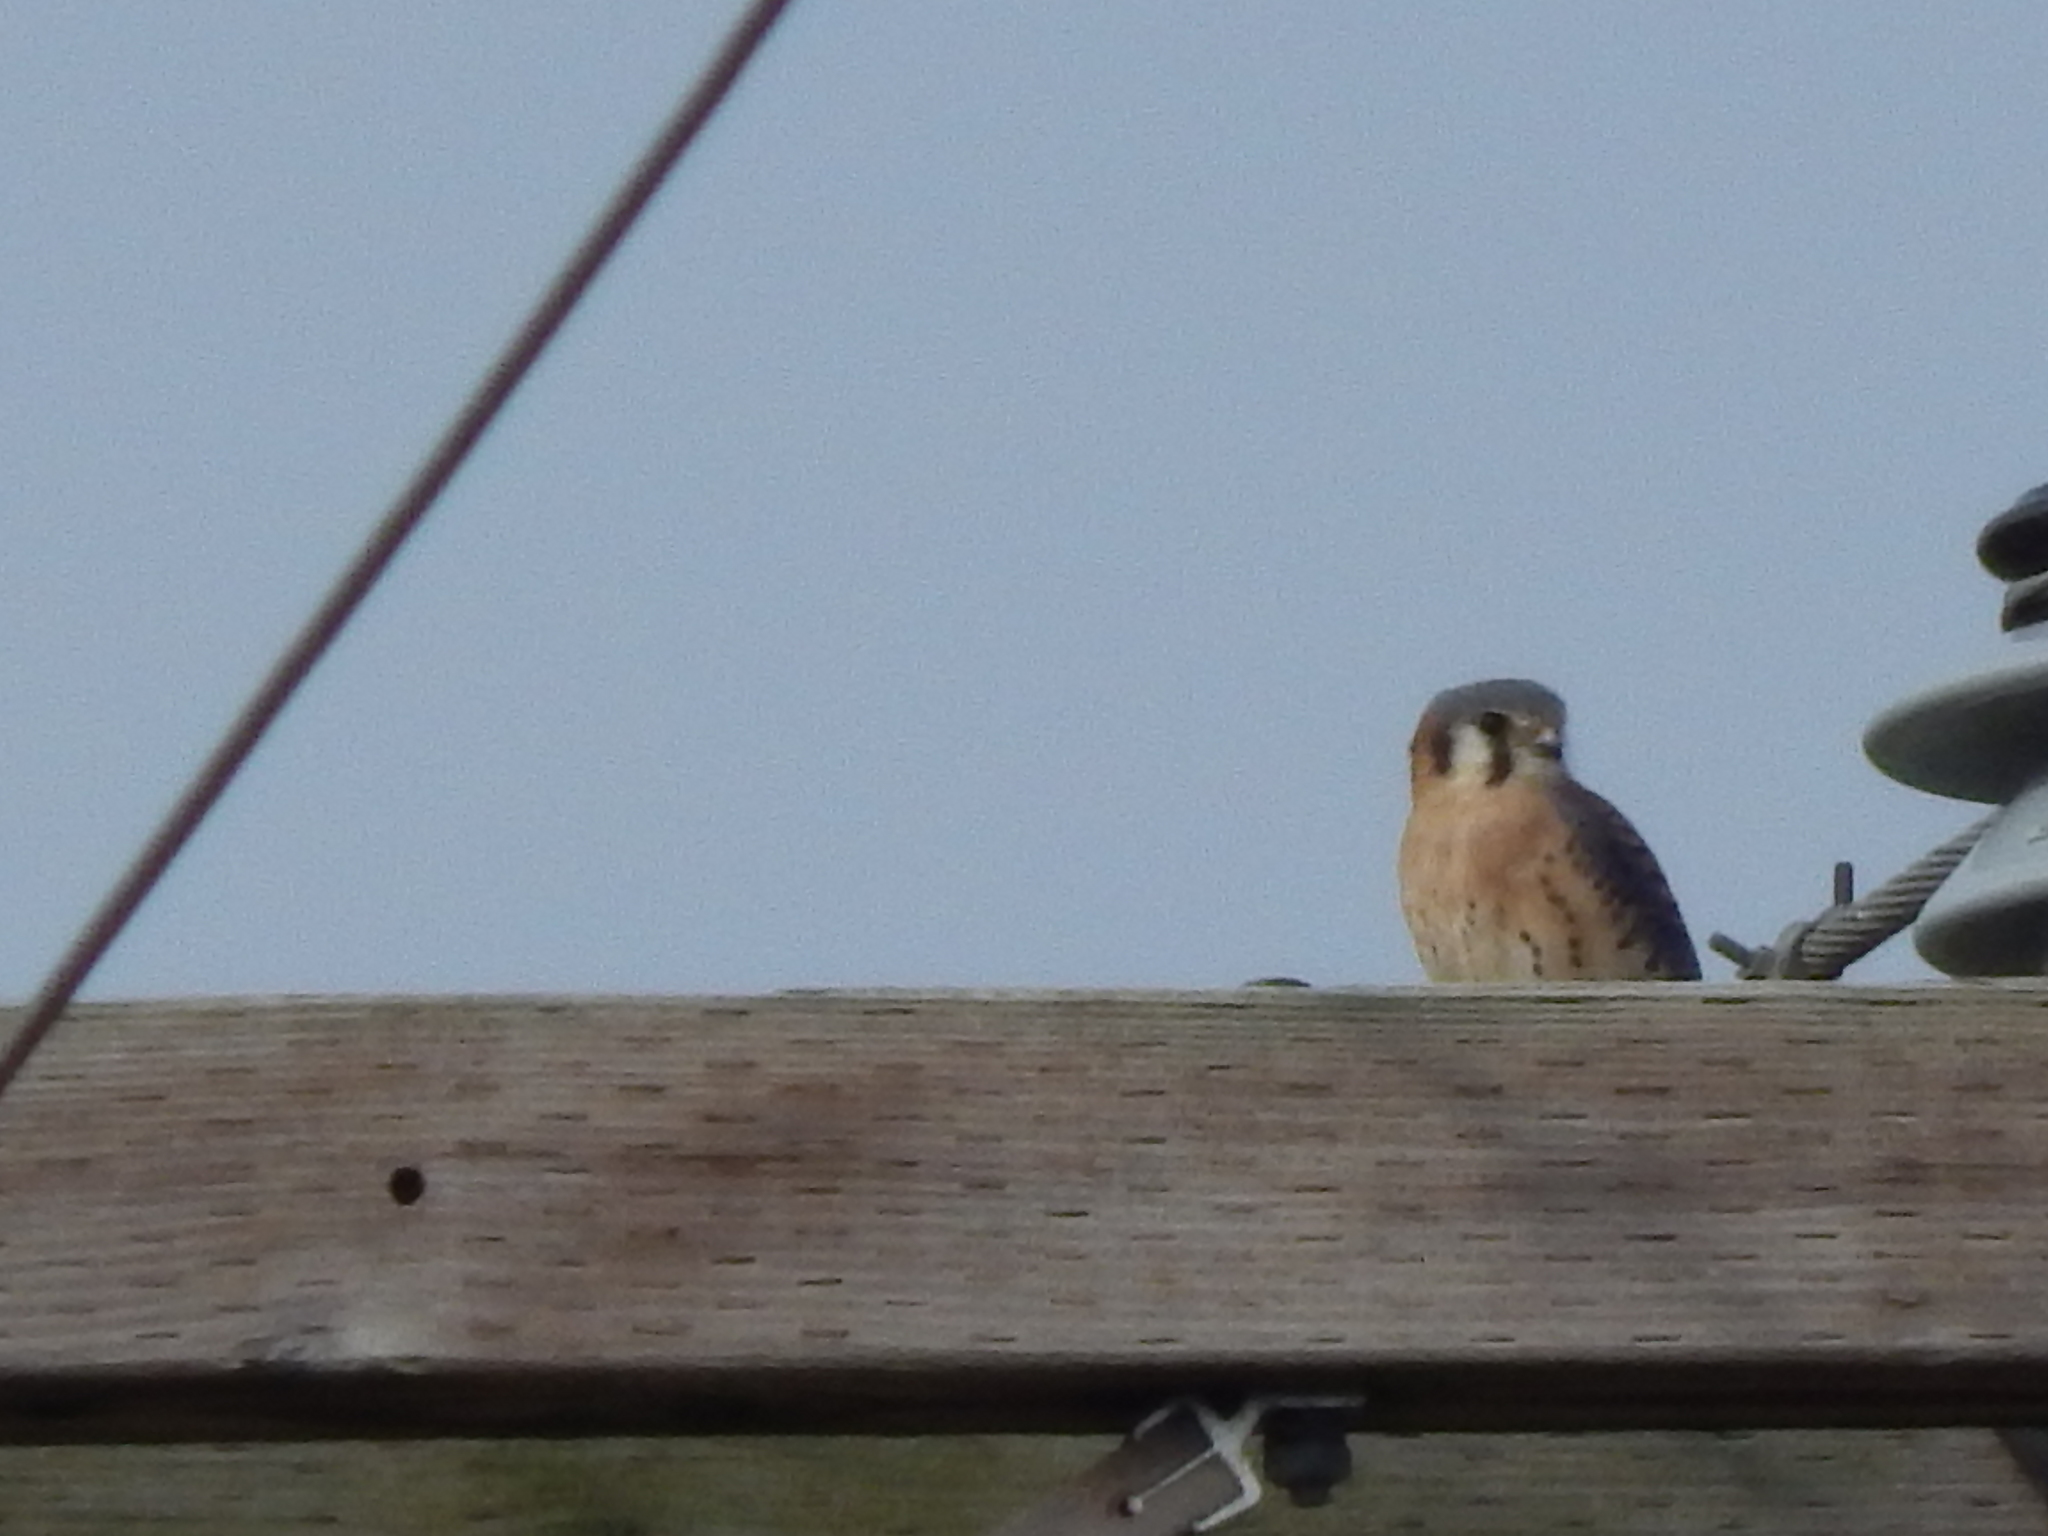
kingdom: Animalia
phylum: Chordata
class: Aves
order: Falconiformes
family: Falconidae
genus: Falco
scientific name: Falco sparverius
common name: American kestrel
